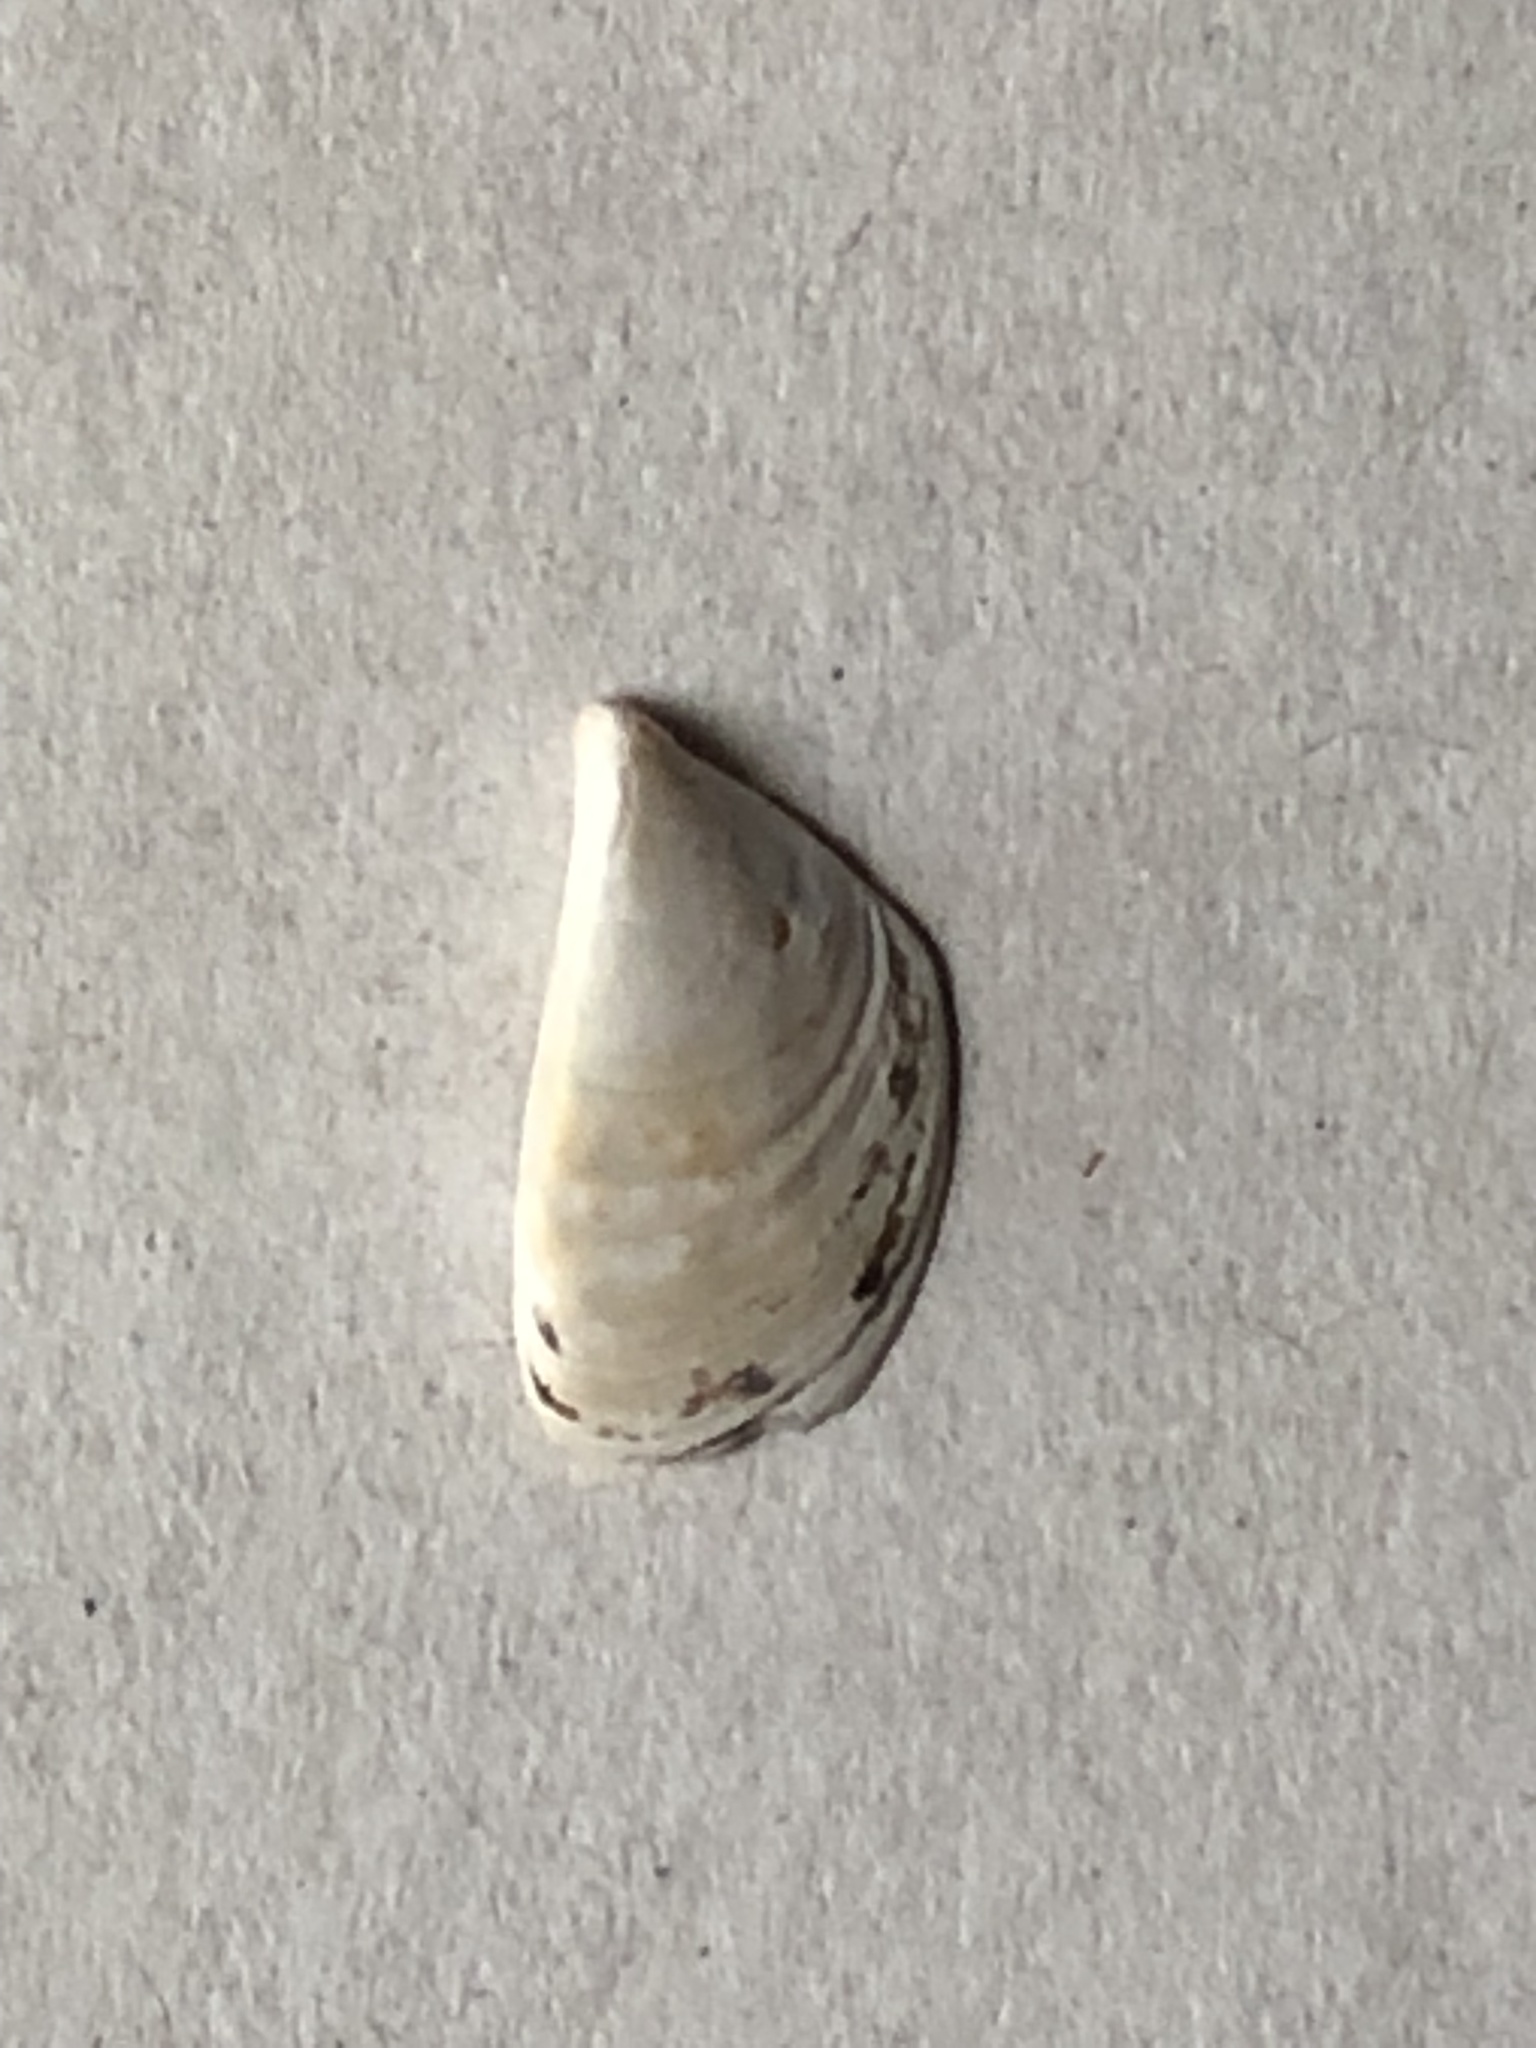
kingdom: Animalia
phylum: Mollusca
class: Bivalvia
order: Myida
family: Dreissenidae
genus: Dreissena
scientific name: Dreissena polymorpha
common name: Zebra mussel
